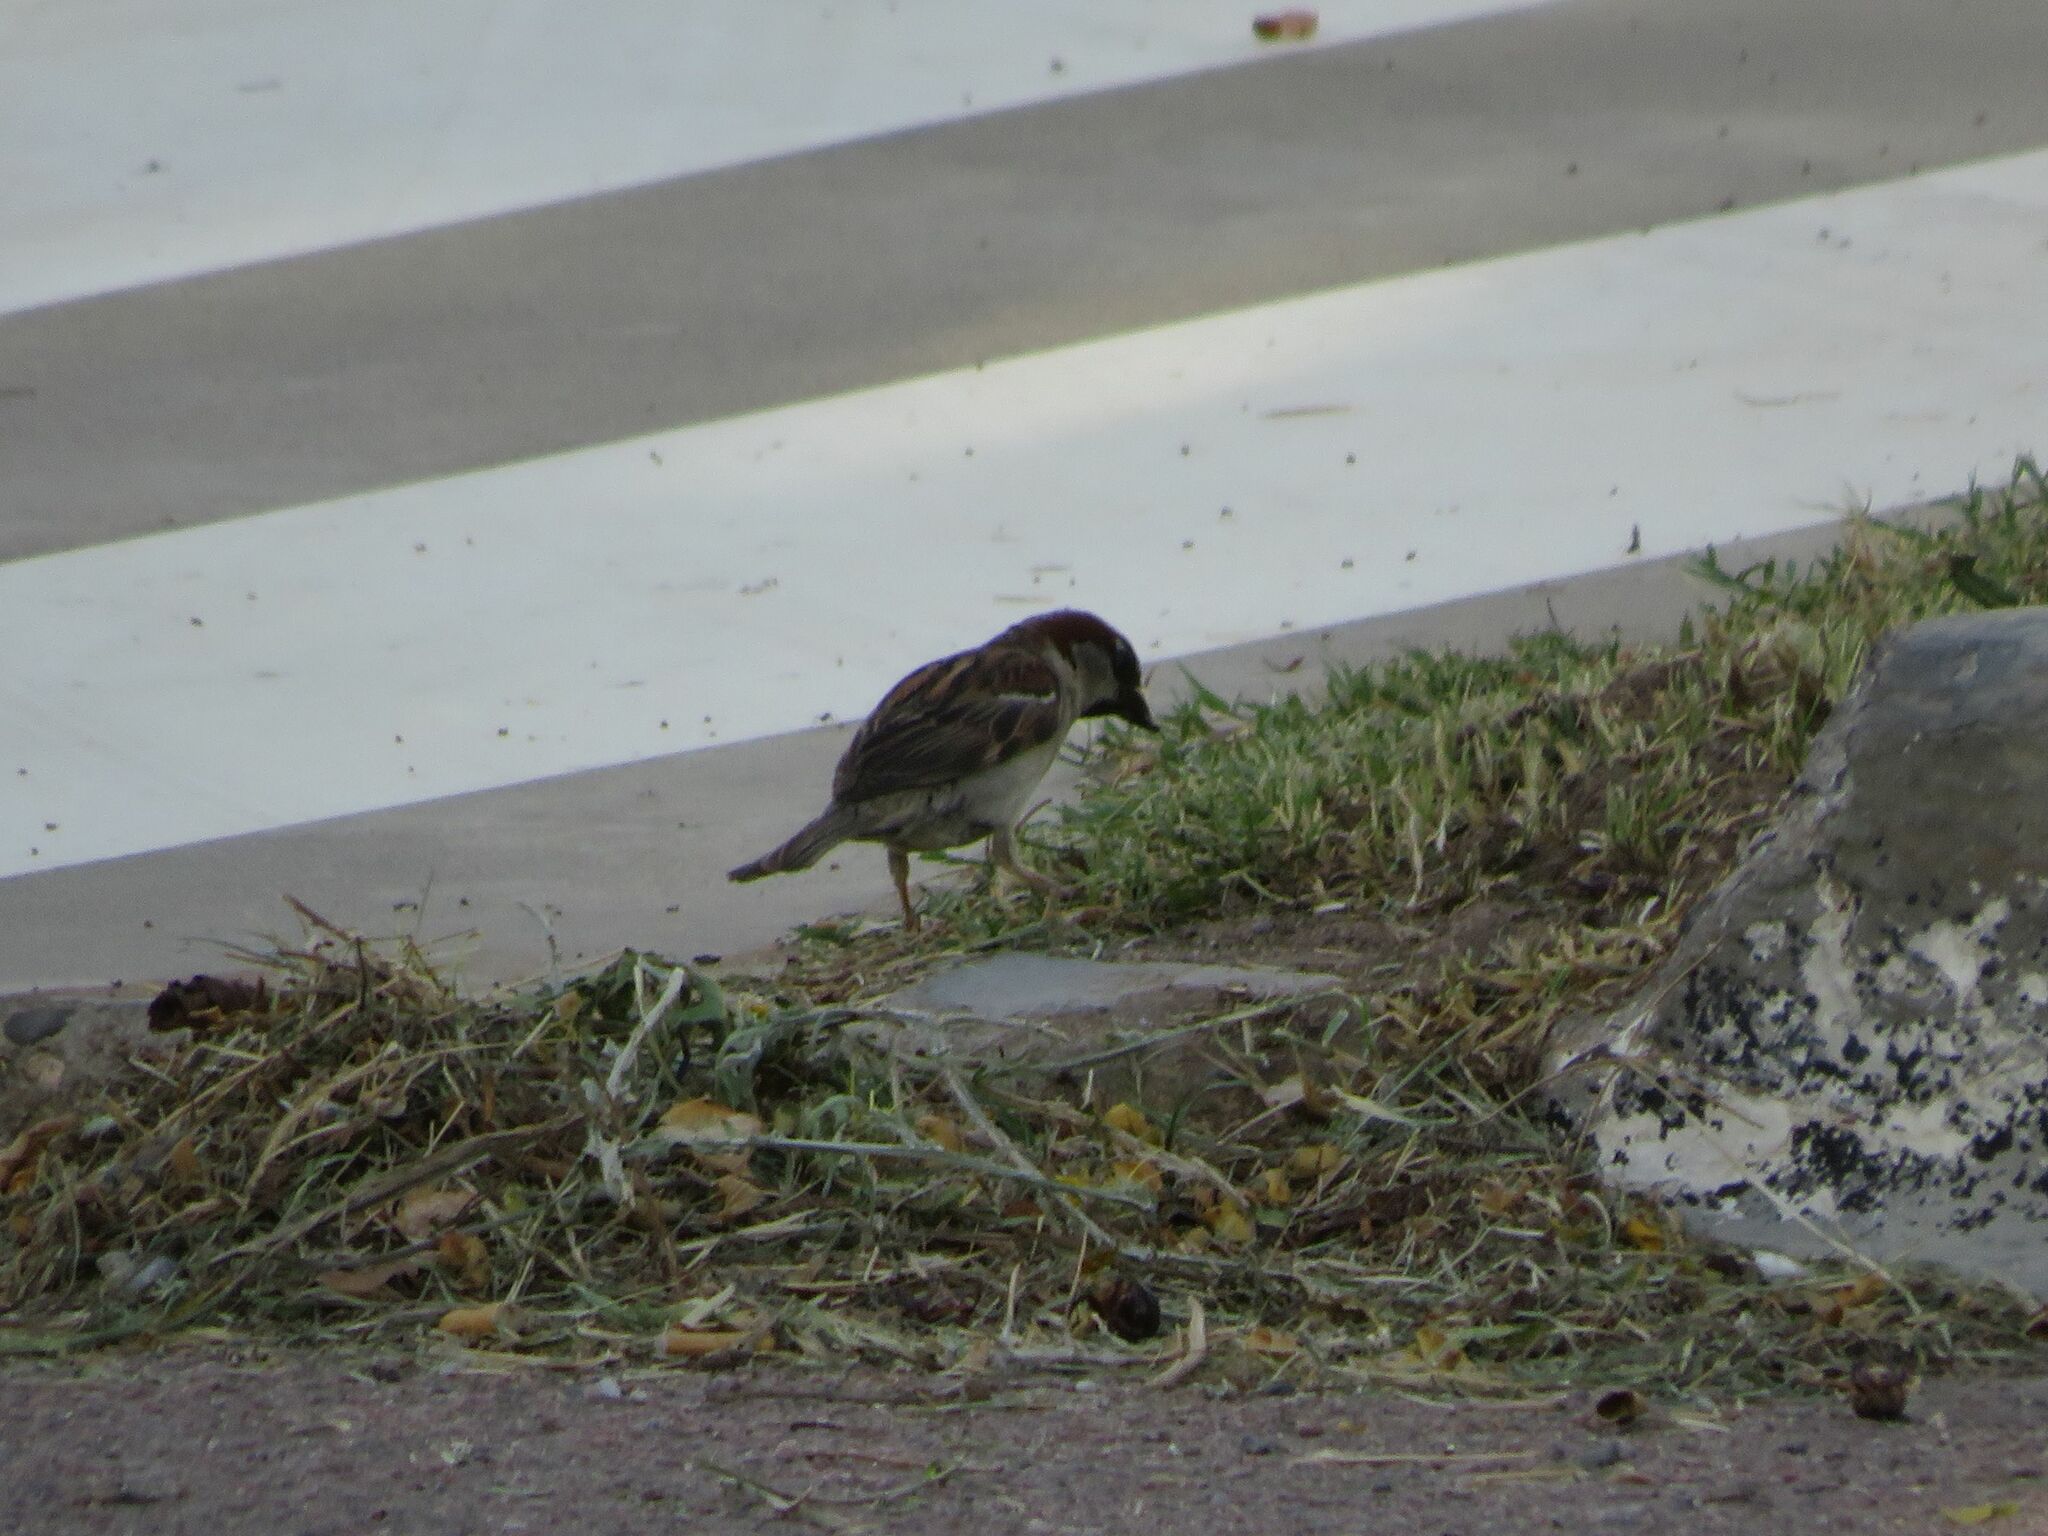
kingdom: Animalia
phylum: Chordata
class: Aves
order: Passeriformes
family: Passeridae
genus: Passer
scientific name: Passer domesticus
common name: House sparrow
